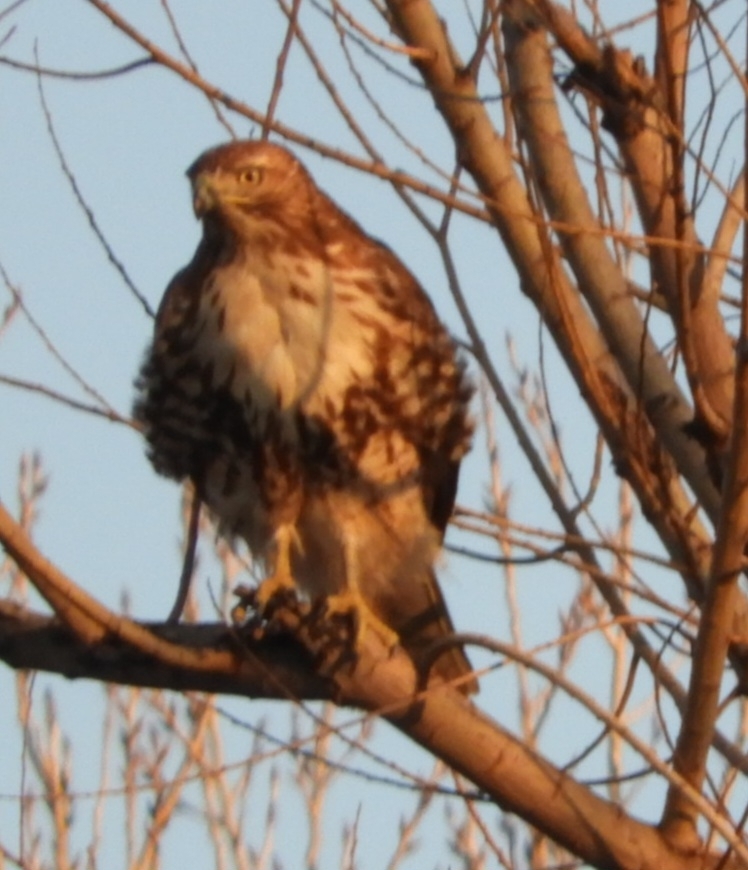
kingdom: Animalia
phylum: Chordata
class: Aves
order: Accipitriformes
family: Accipitridae
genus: Buteo
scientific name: Buteo jamaicensis
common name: Red-tailed hawk
